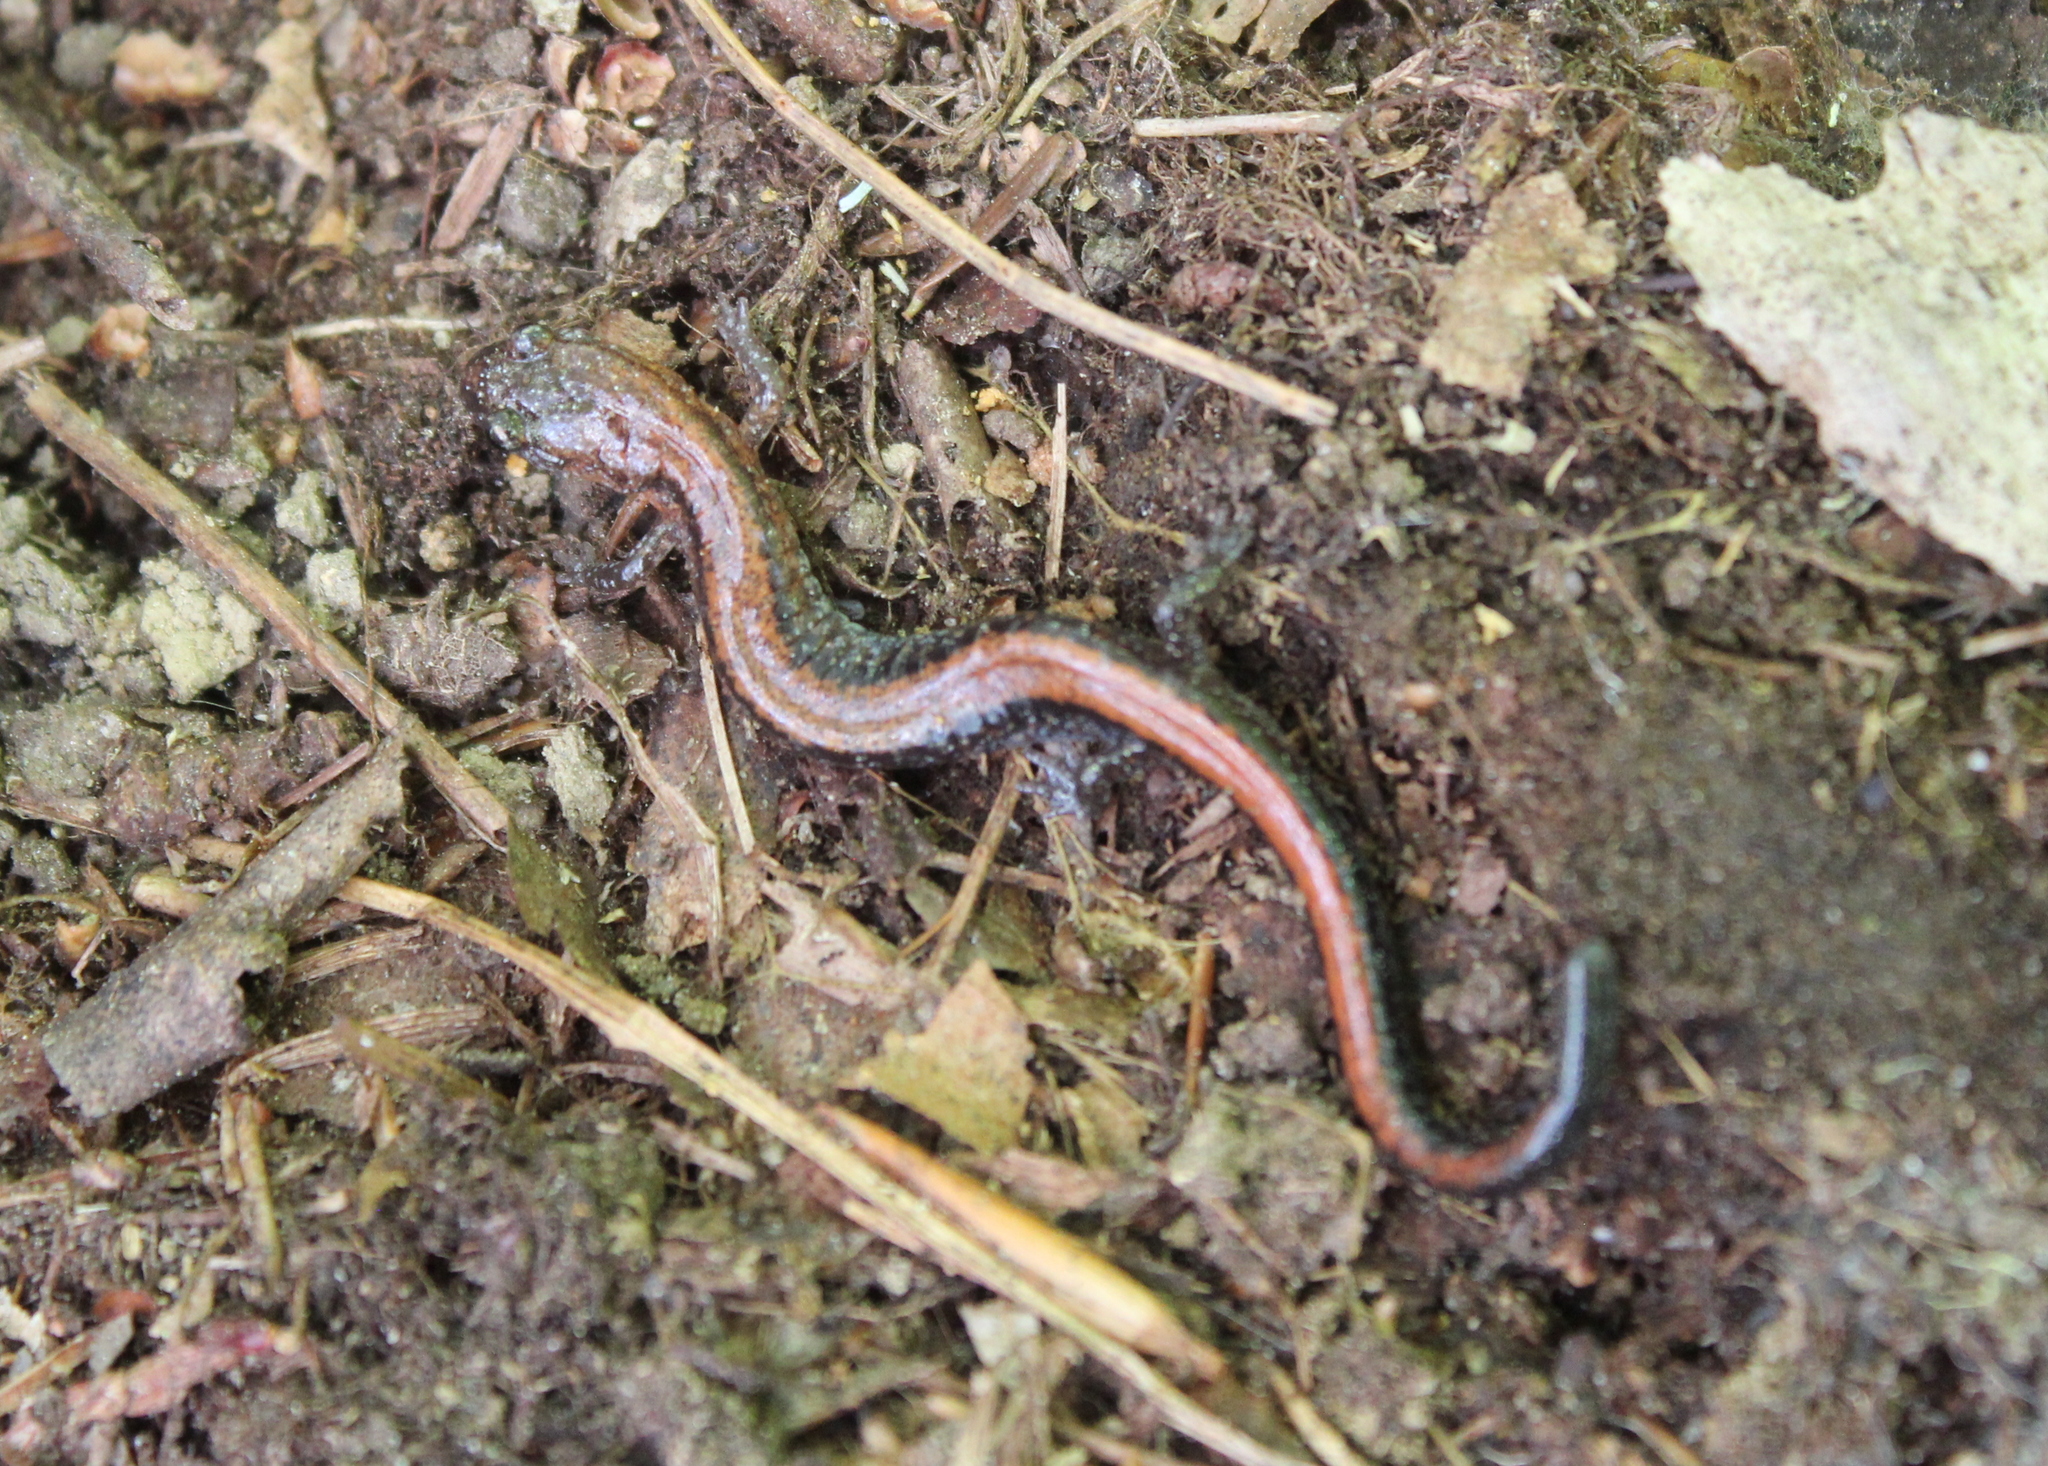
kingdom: Animalia
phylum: Chordata
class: Amphibia
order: Caudata
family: Plethodontidae
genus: Plethodon
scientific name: Plethodon cinereus
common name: Redback salamander
